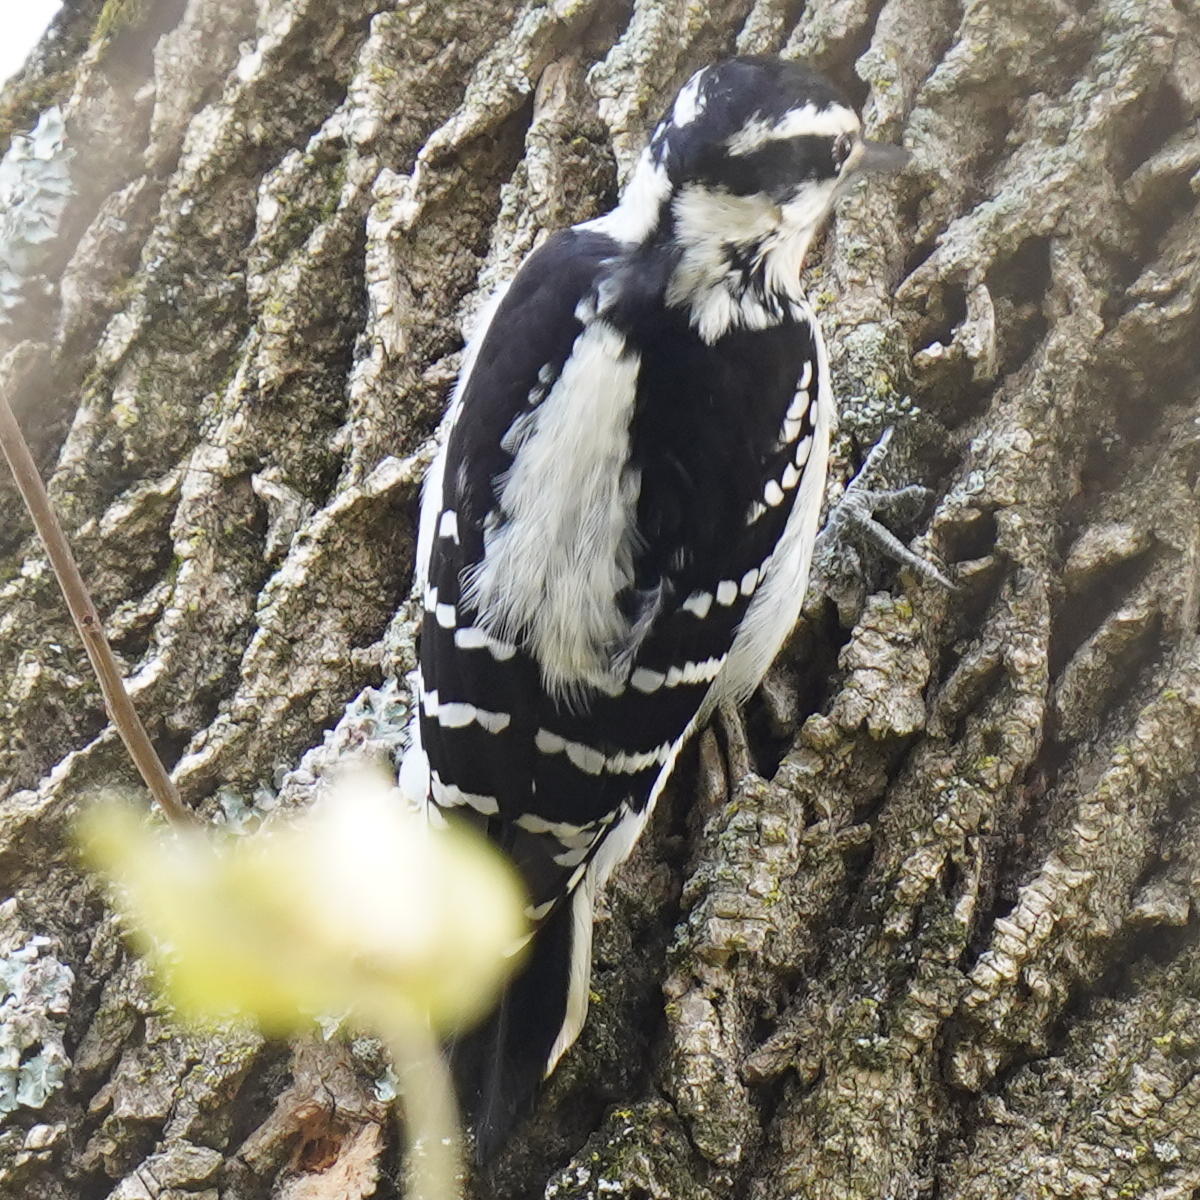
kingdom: Animalia
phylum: Chordata
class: Aves
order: Piciformes
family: Picidae
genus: Leuconotopicus
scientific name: Leuconotopicus villosus
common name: Hairy woodpecker
